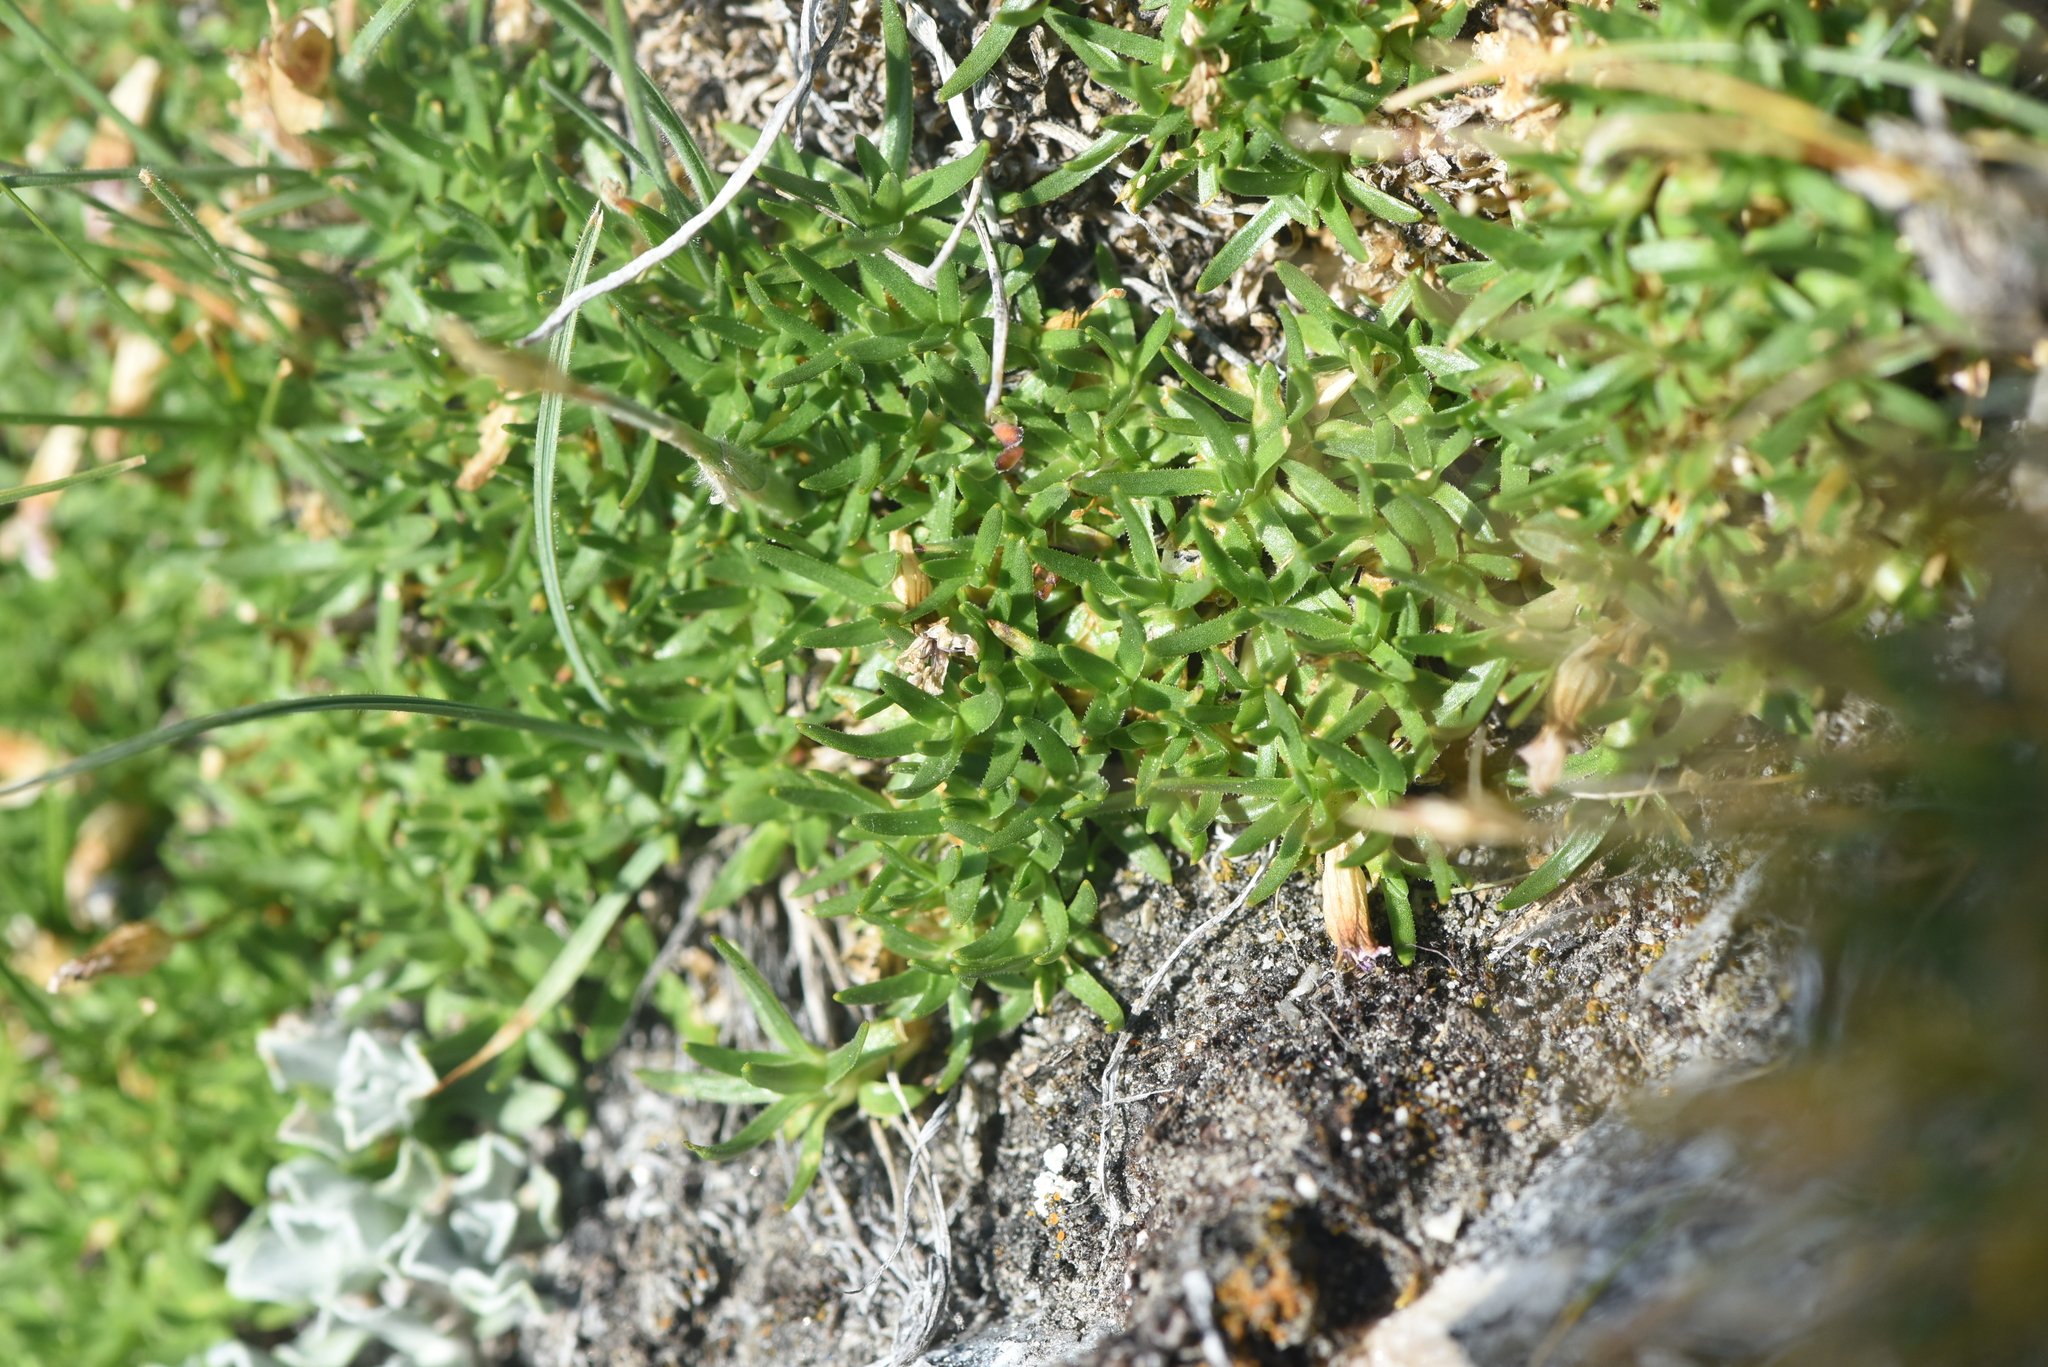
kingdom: Plantae
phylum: Tracheophyta
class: Magnoliopsida
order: Caryophyllales
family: Caryophyllaceae
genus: Silene
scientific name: Silene acaulis
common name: Moss campion
